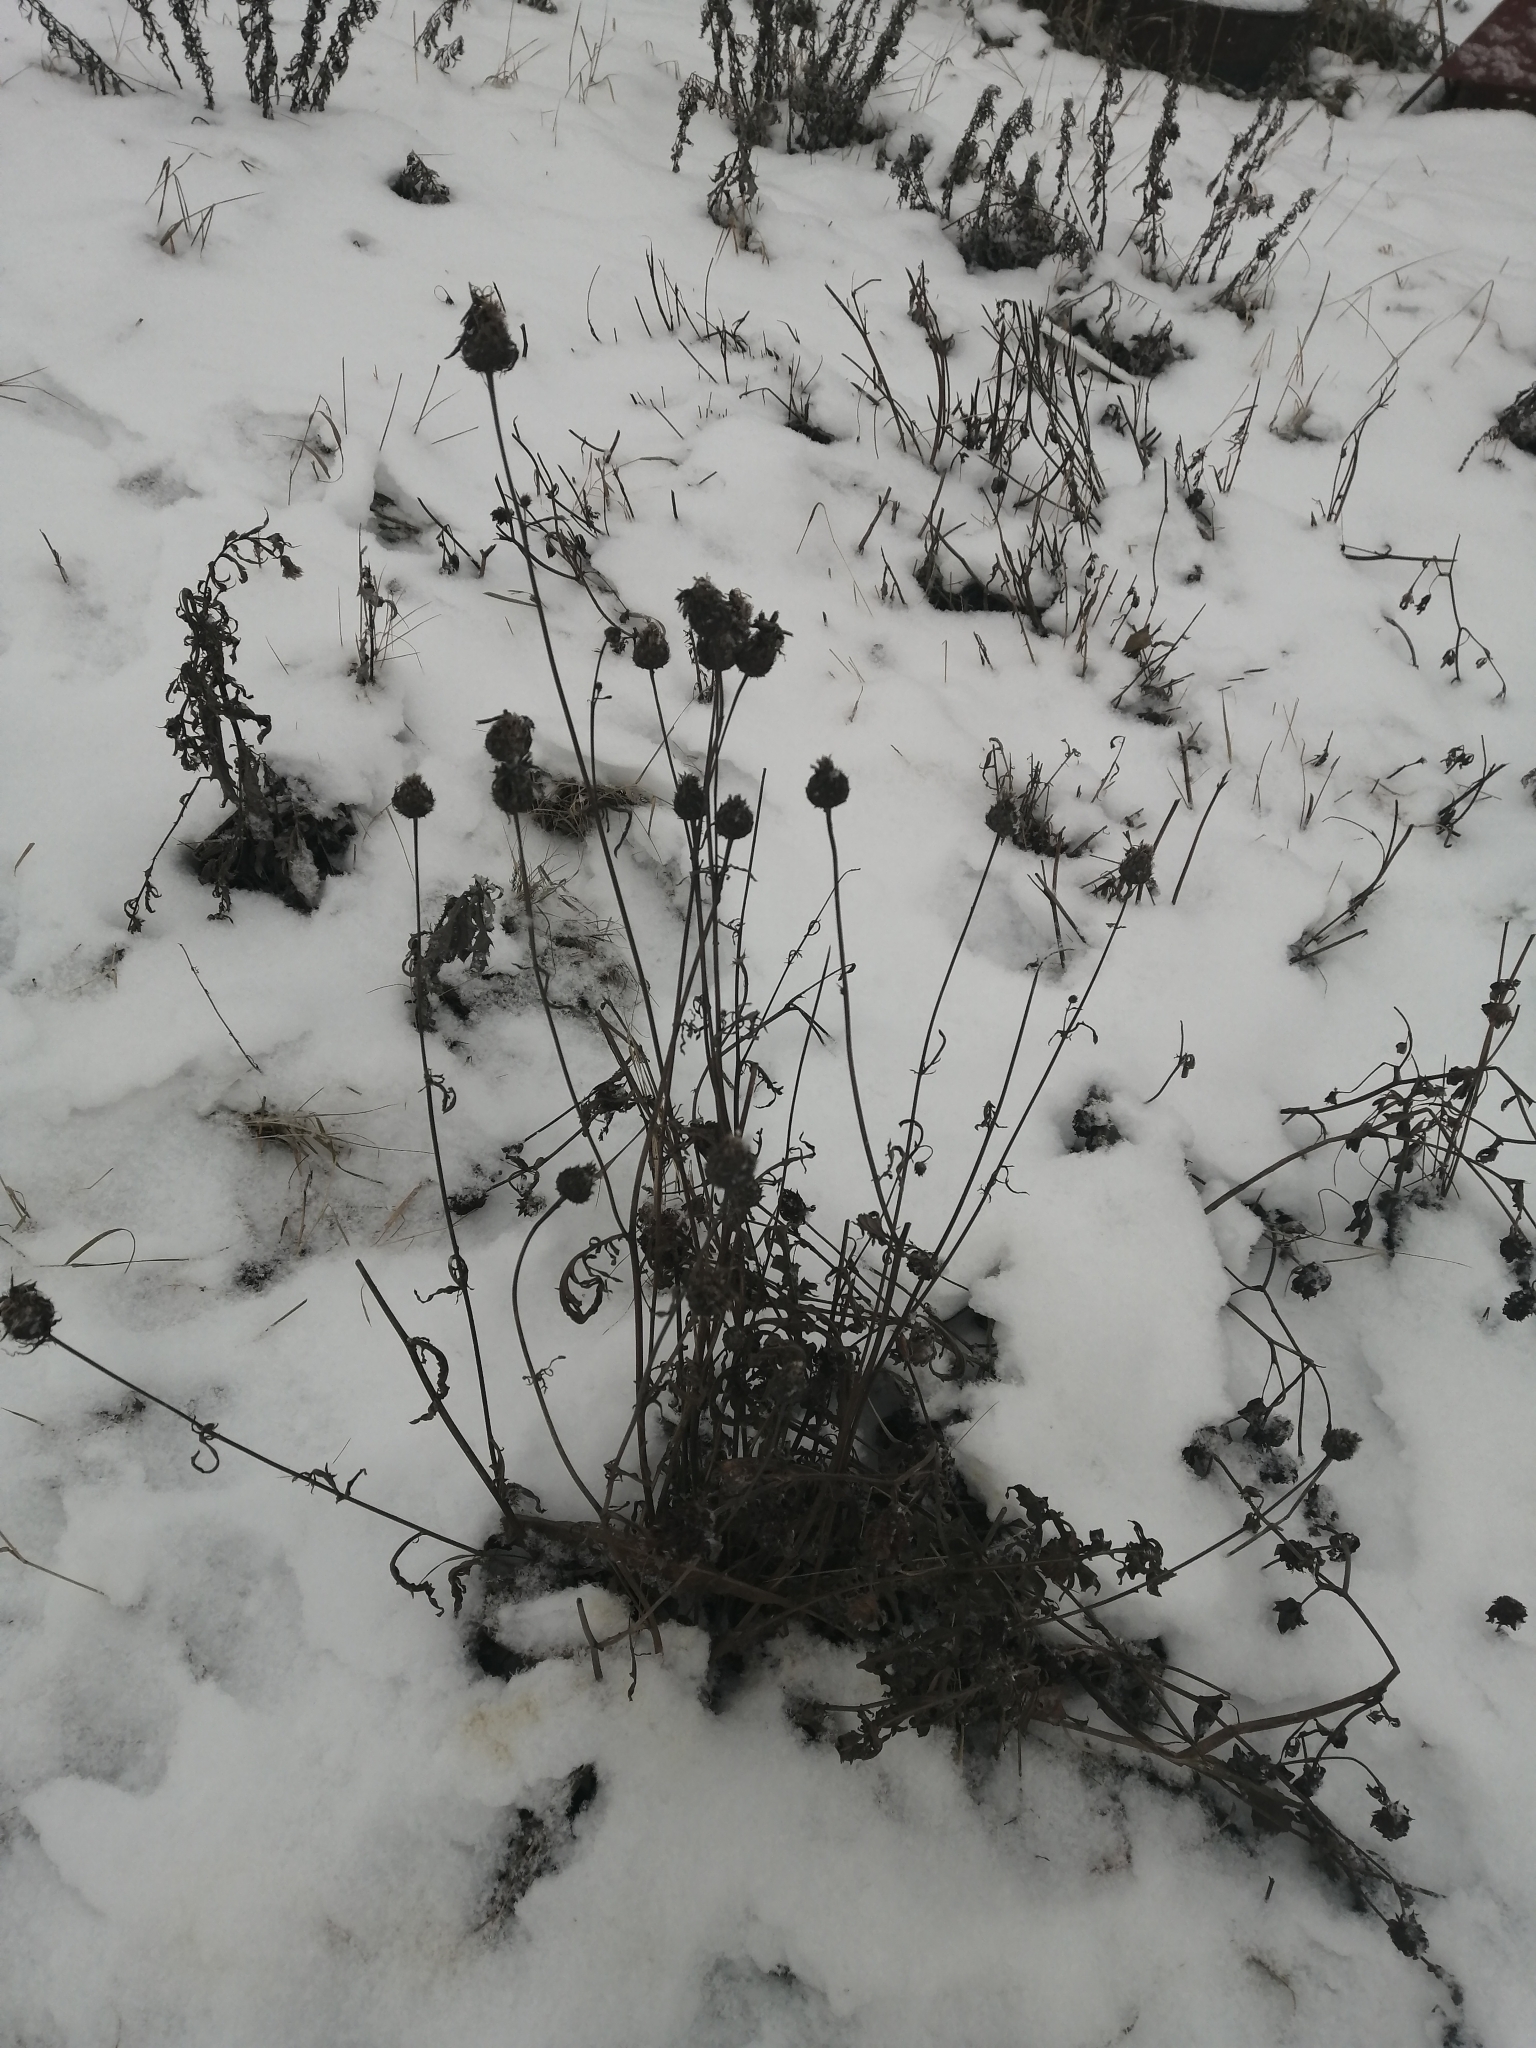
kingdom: Plantae
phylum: Tracheophyta
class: Magnoliopsida
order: Asterales
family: Asteraceae
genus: Centaurea
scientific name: Centaurea scabiosa
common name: Greater knapweed
